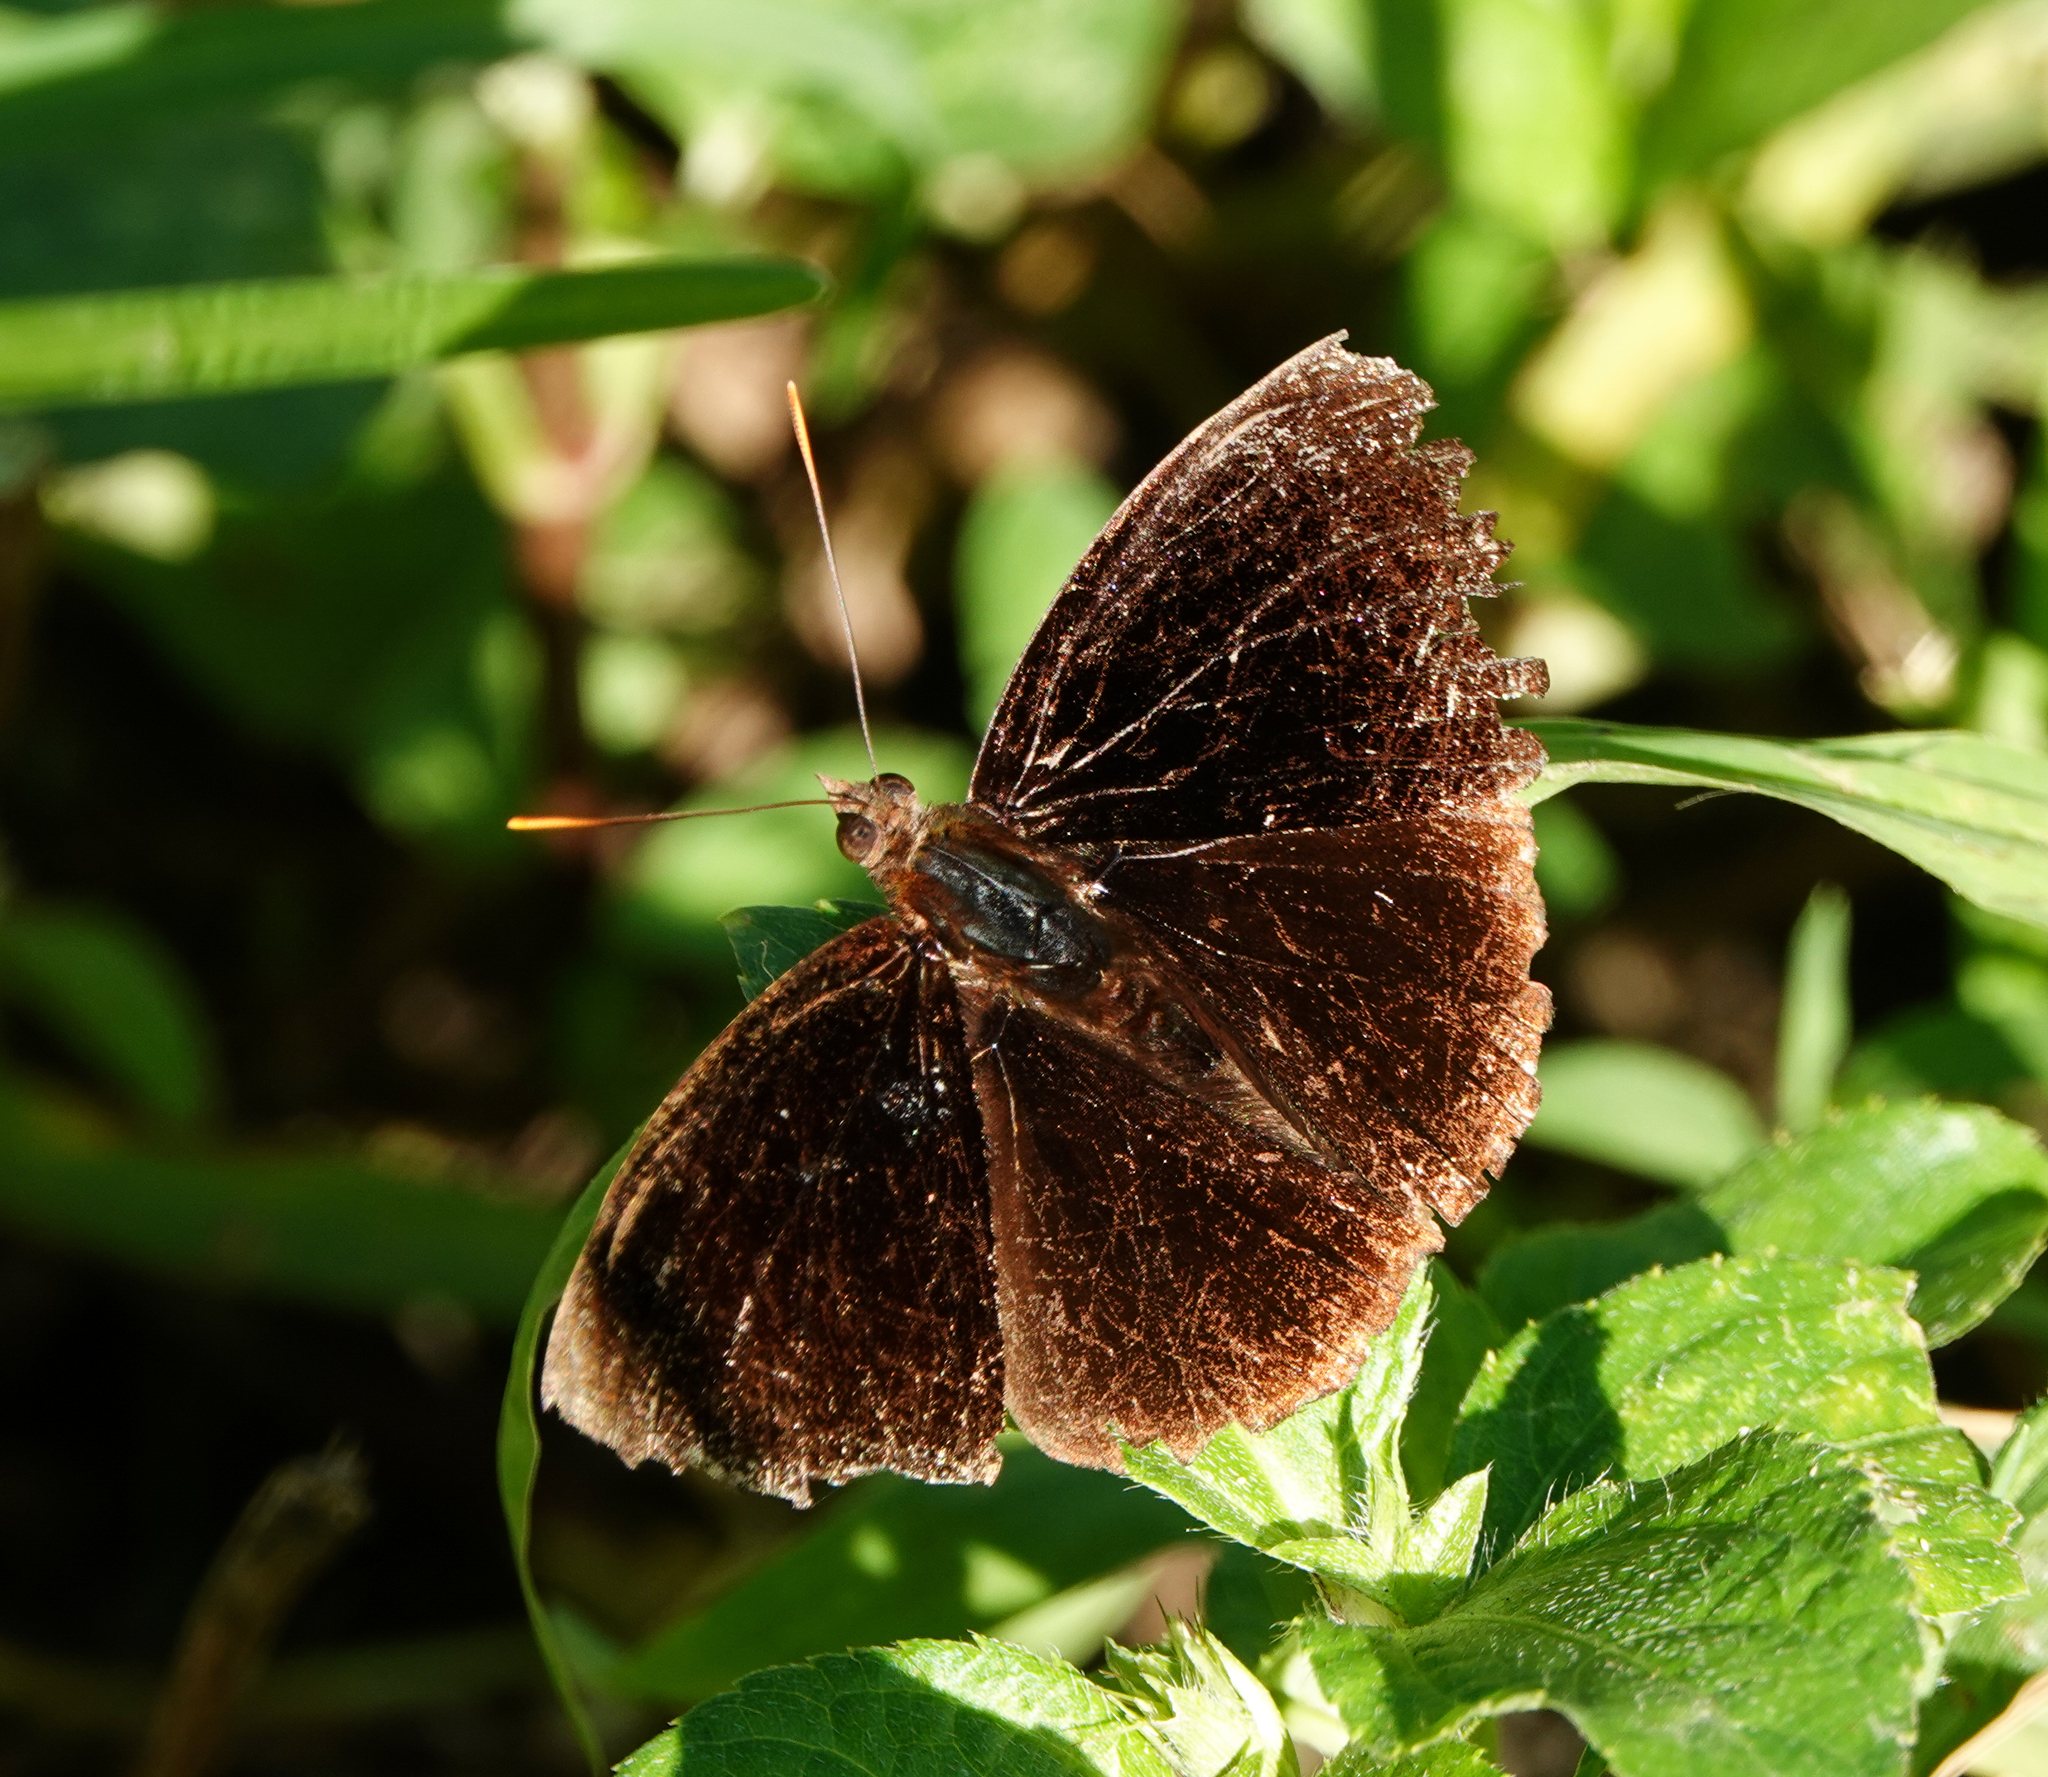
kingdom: Animalia
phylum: Arthropoda
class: Insecta
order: Lepidoptera
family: Nymphalidae
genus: Apatura
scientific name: Apatura Rohana spec
